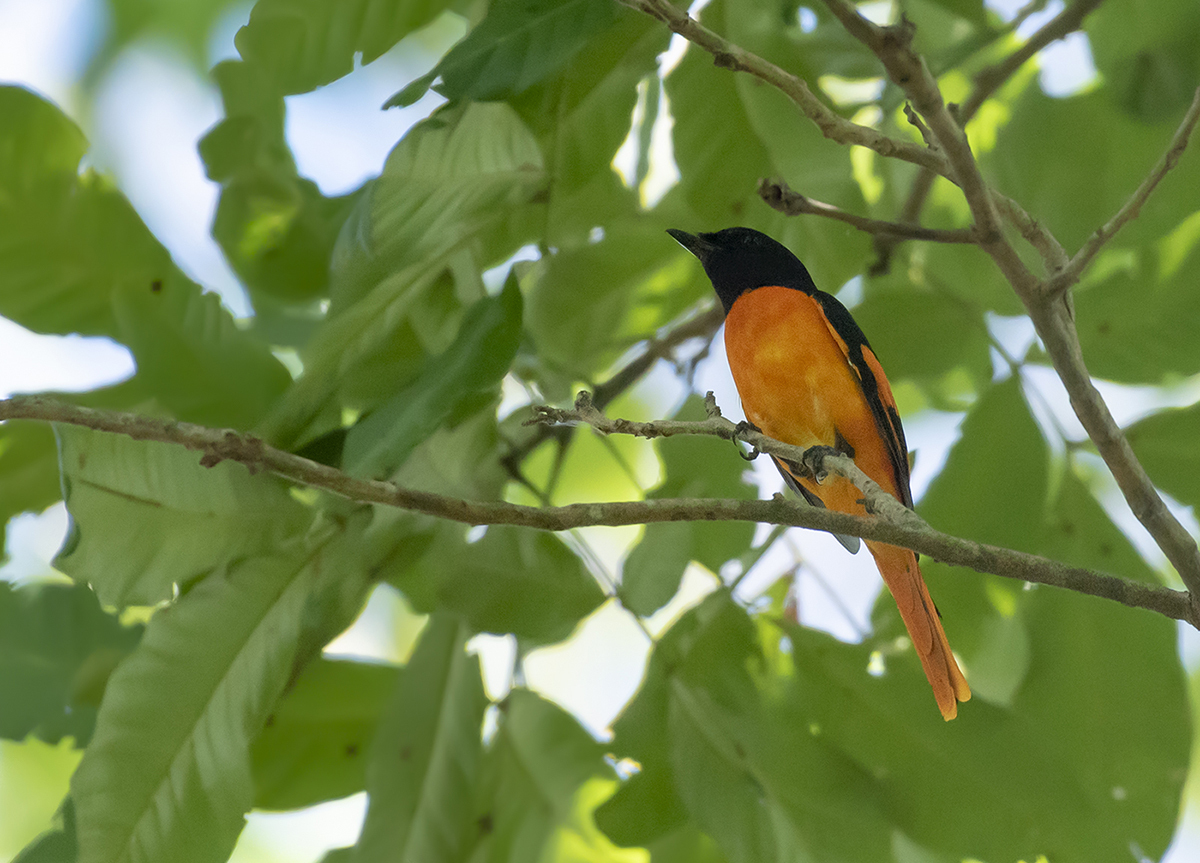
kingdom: Animalia
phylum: Chordata
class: Aves
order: Passeriformes
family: Campephagidae
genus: Pericrocotus
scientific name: Pericrocotus flammeus
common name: Orange minivet
